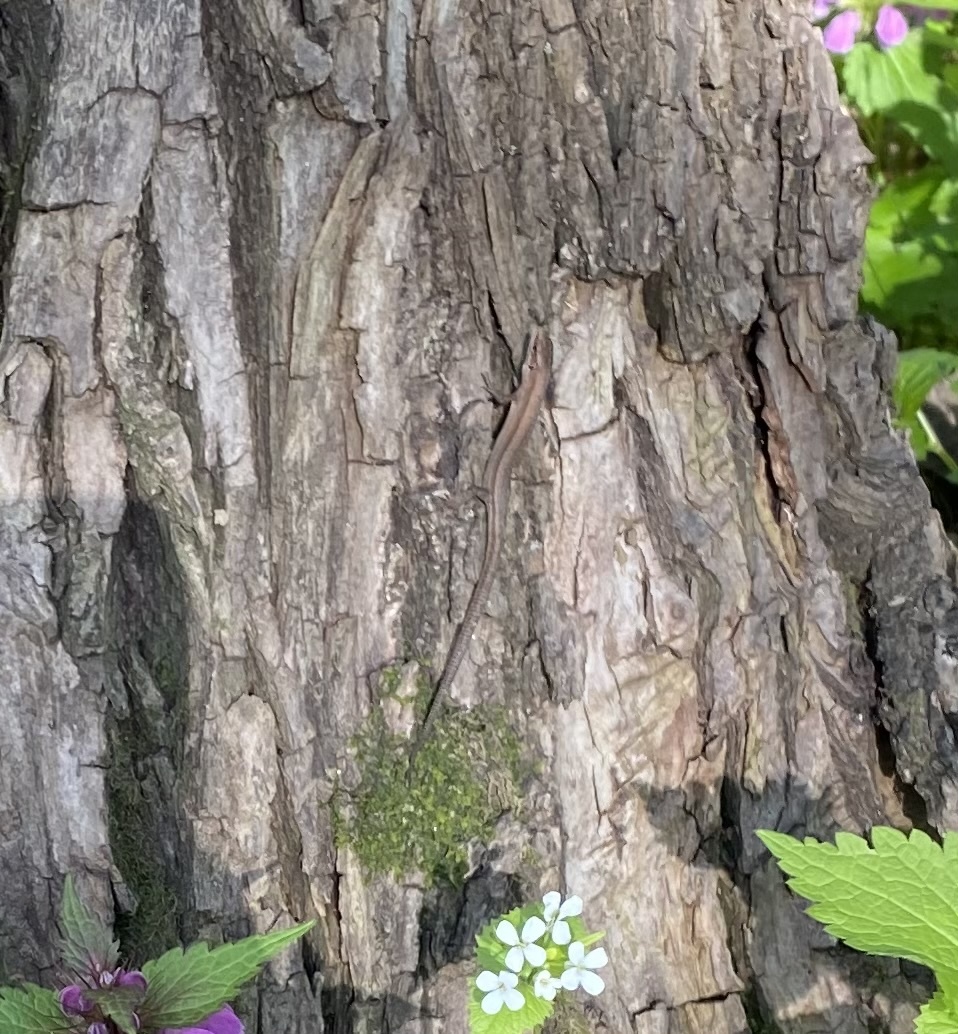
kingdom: Animalia
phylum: Chordata
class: Squamata
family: Lacertidae
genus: Darevskia
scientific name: Darevskia praticola
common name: Meadow lizard
